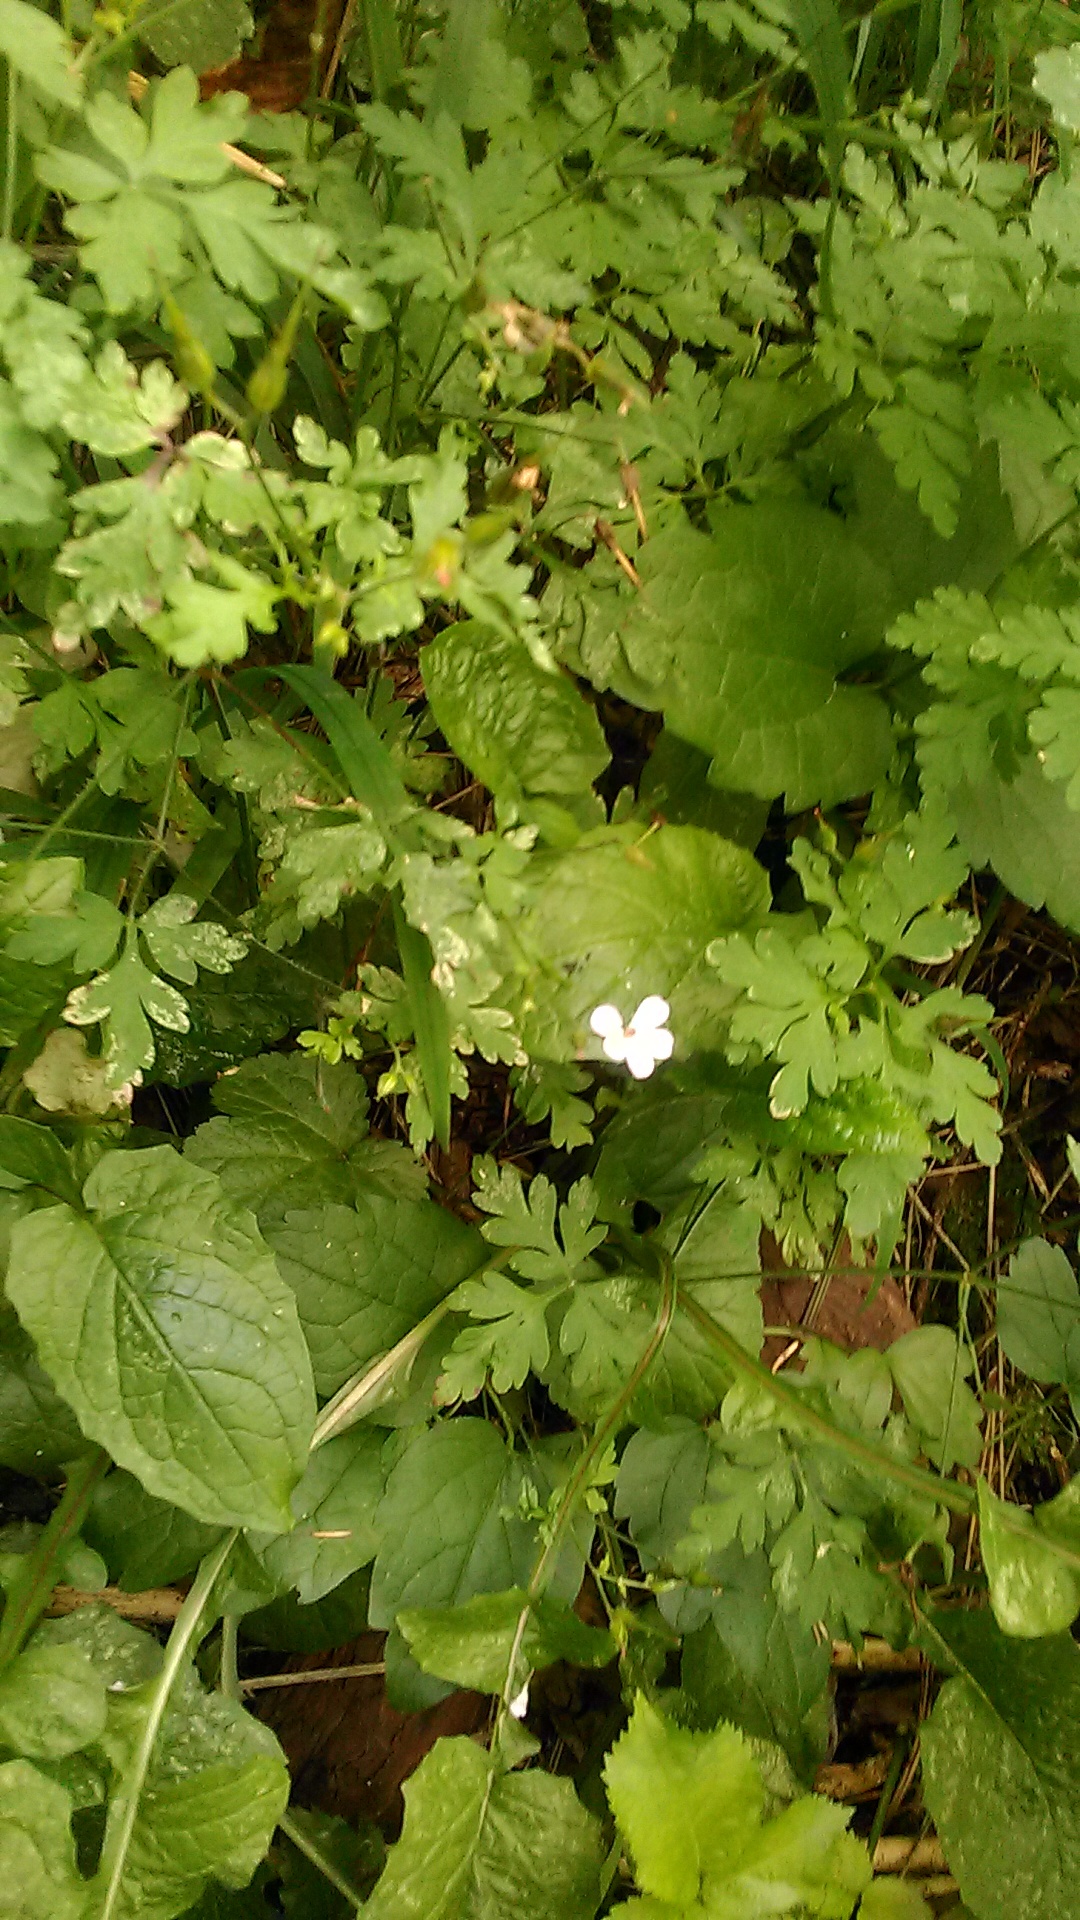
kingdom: Plantae
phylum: Tracheophyta
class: Magnoliopsida
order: Geraniales
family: Geraniaceae
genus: Geranium
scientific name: Geranium robertianum
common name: Herb-robert
